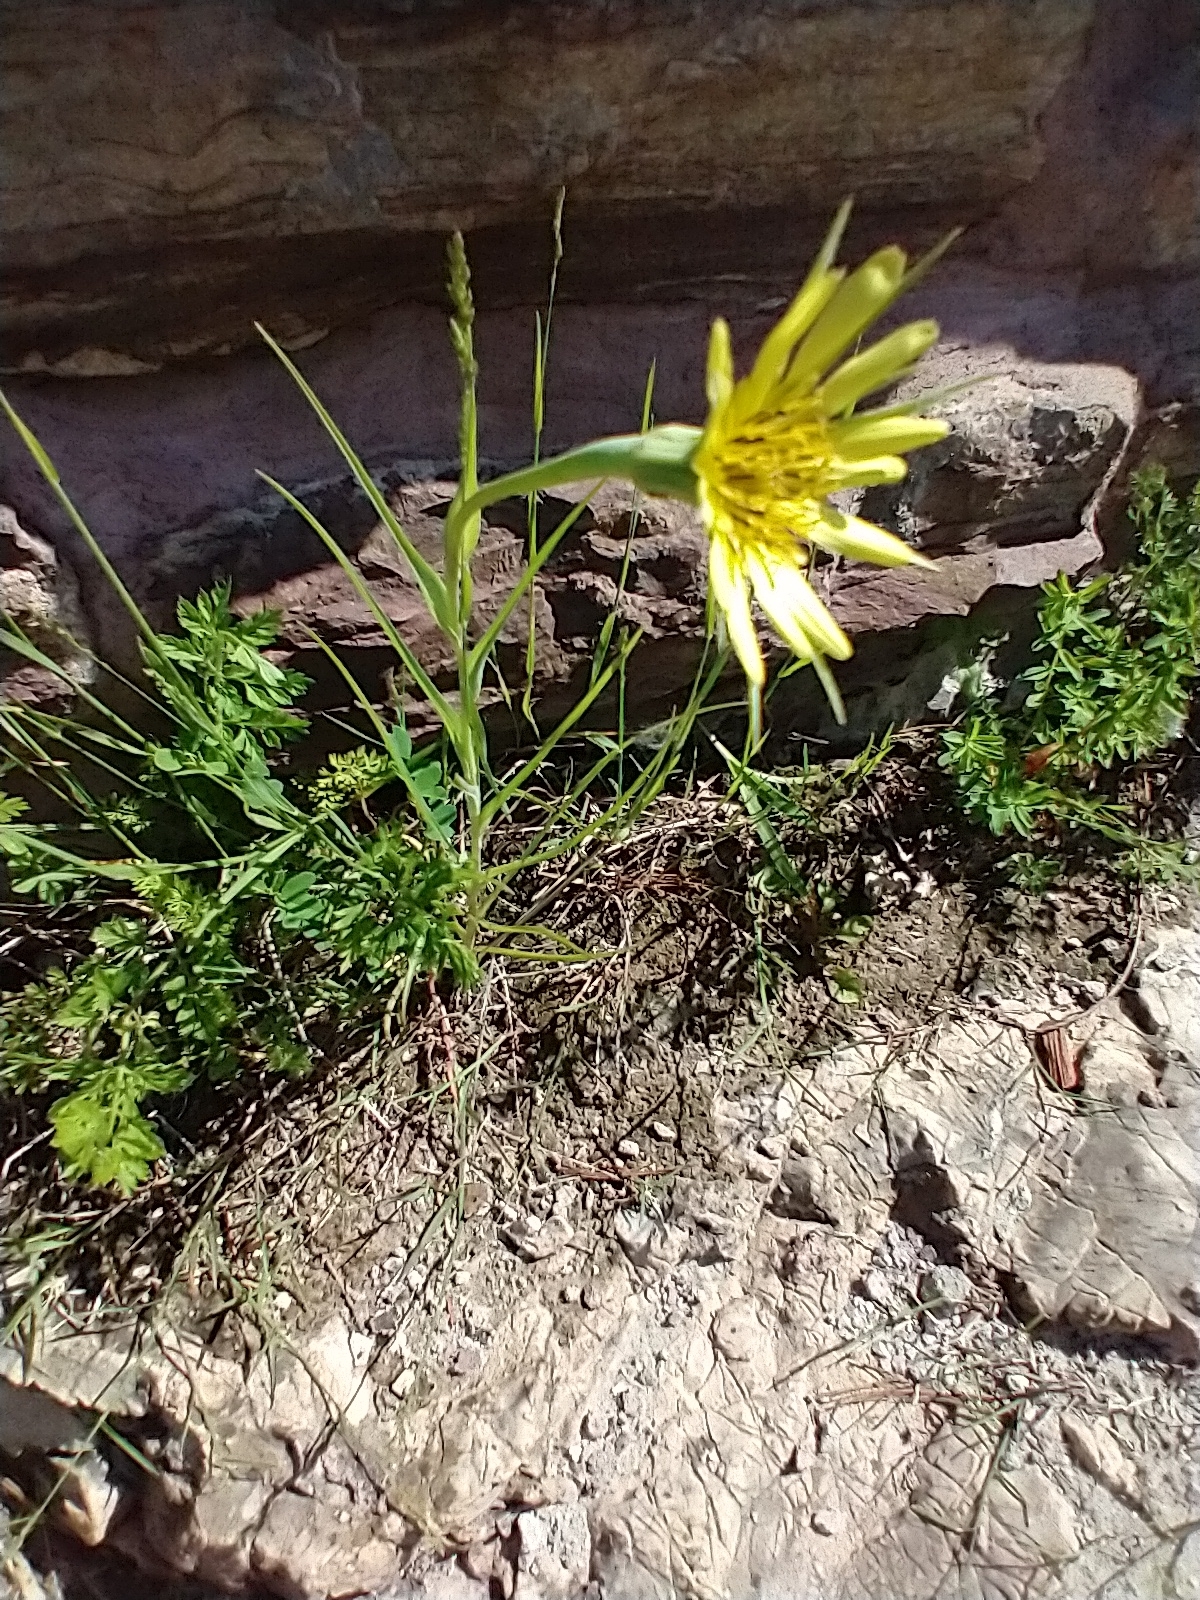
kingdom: Plantae
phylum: Tracheophyta
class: Magnoliopsida
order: Asterales
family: Asteraceae
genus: Tragopogon
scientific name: Tragopogon dubius
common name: Yellow salsify
